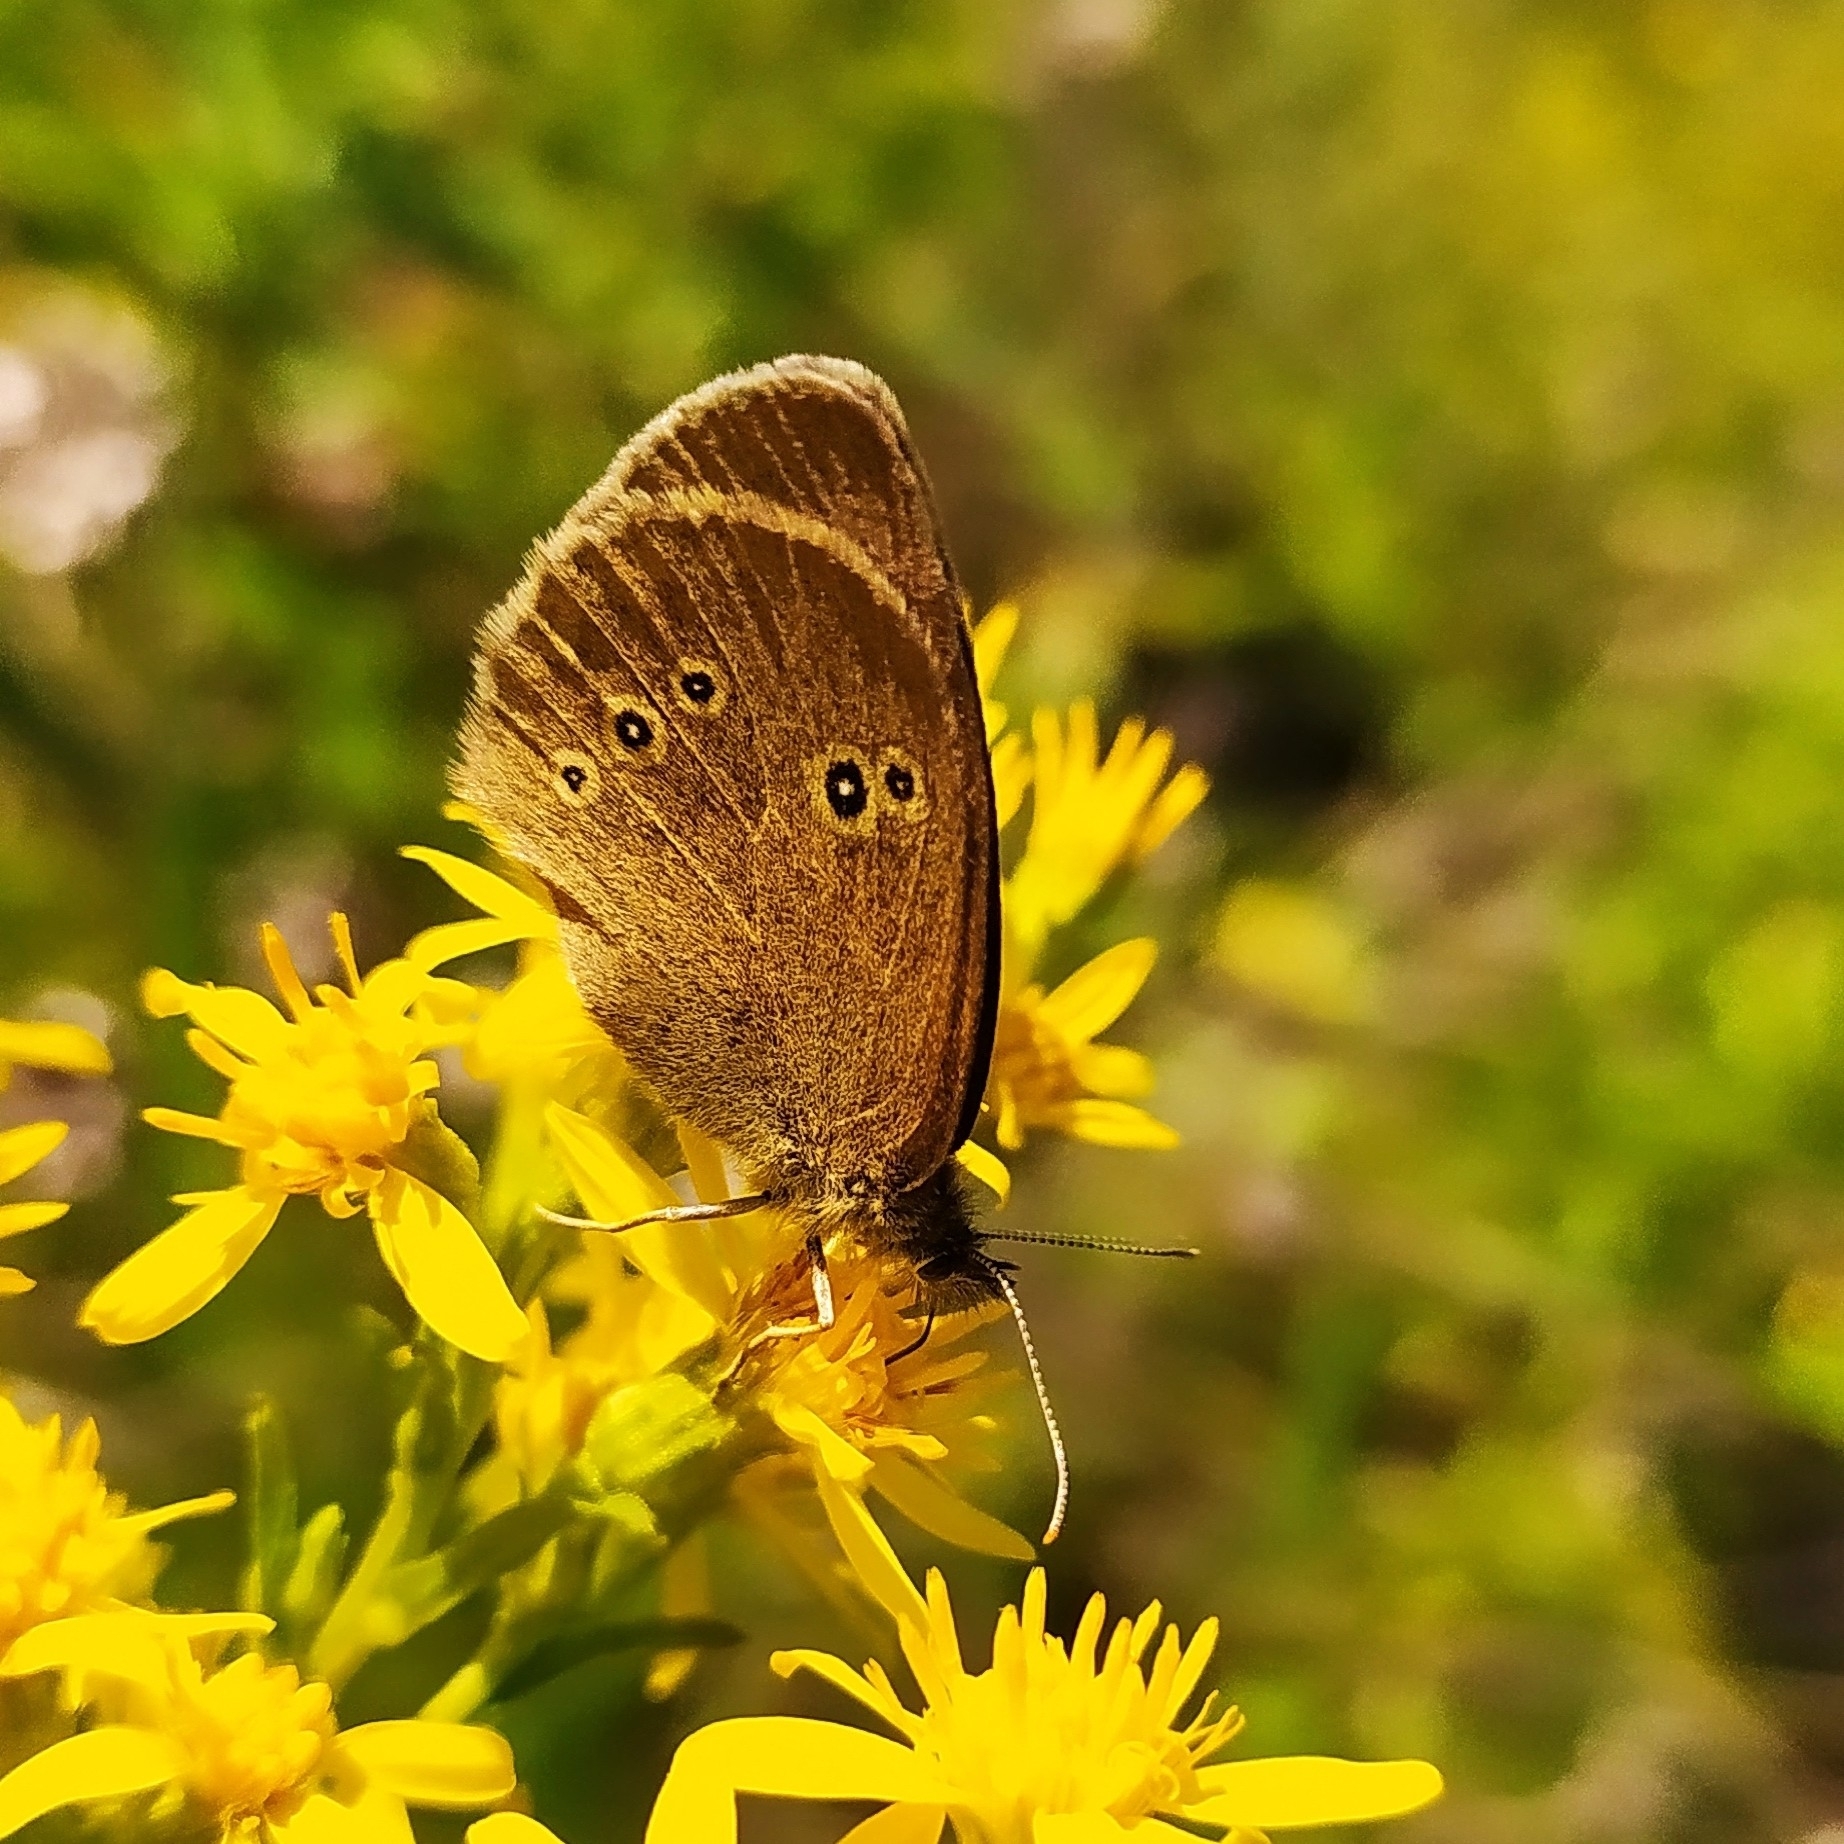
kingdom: Animalia
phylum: Arthropoda
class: Insecta
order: Lepidoptera
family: Nymphalidae
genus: Aphantopus
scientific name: Aphantopus hyperantus
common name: Ringlet
